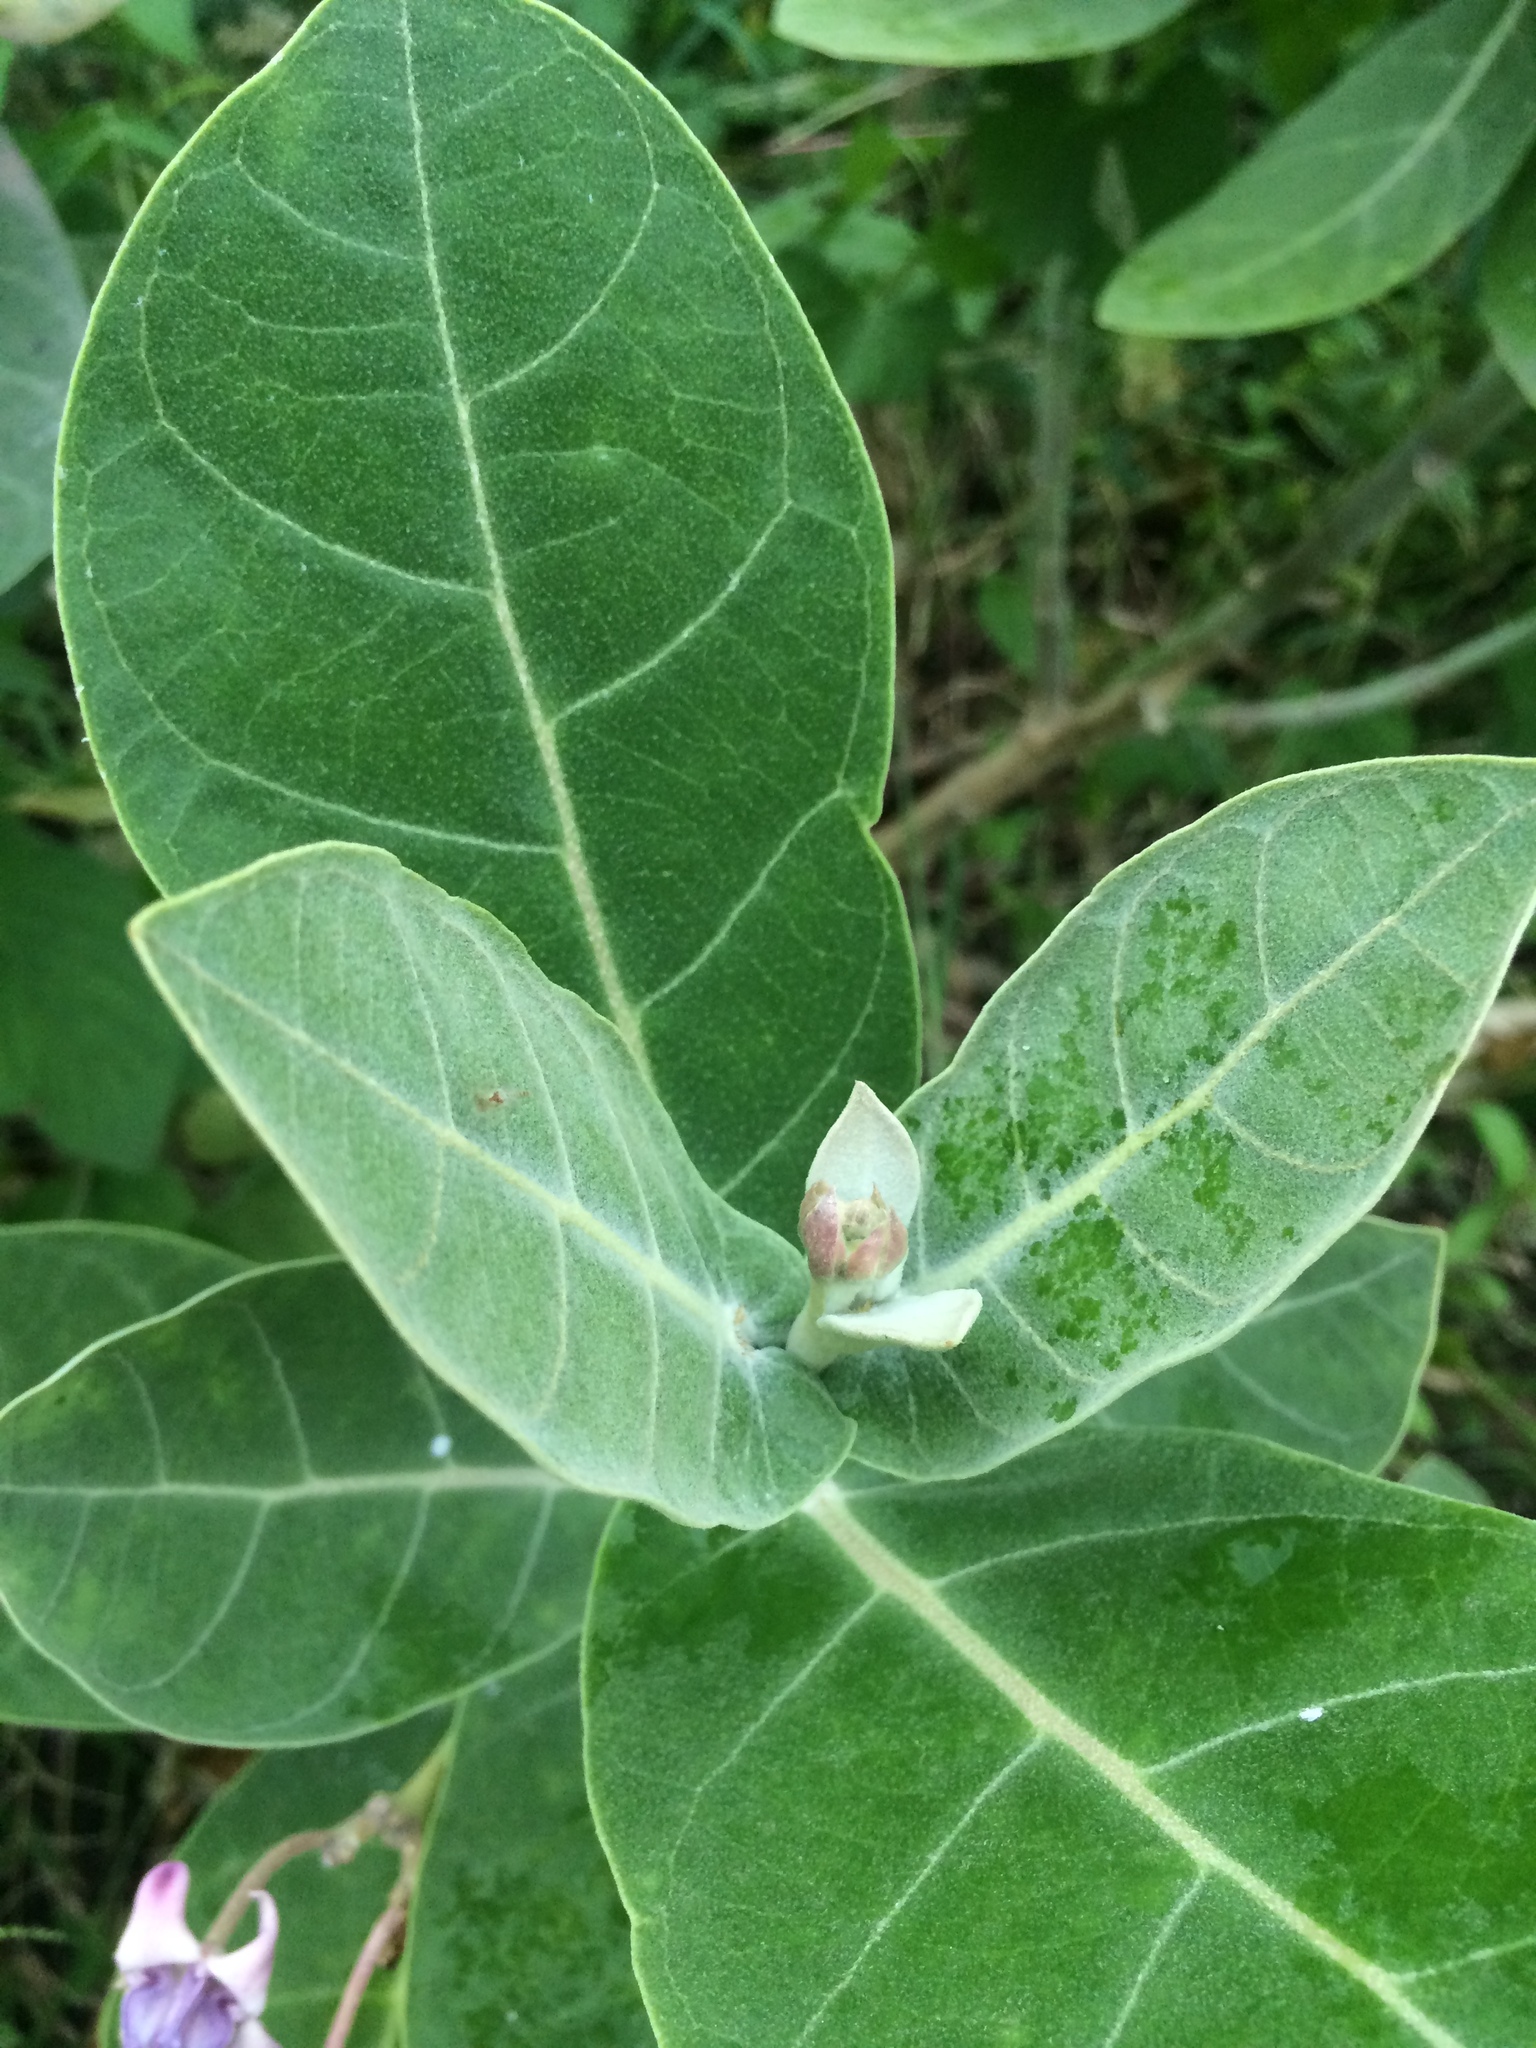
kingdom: Plantae
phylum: Tracheophyta
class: Magnoliopsida
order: Gentianales
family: Apocynaceae
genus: Calotropis
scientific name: Calotropis gigantea
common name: Crown flower
